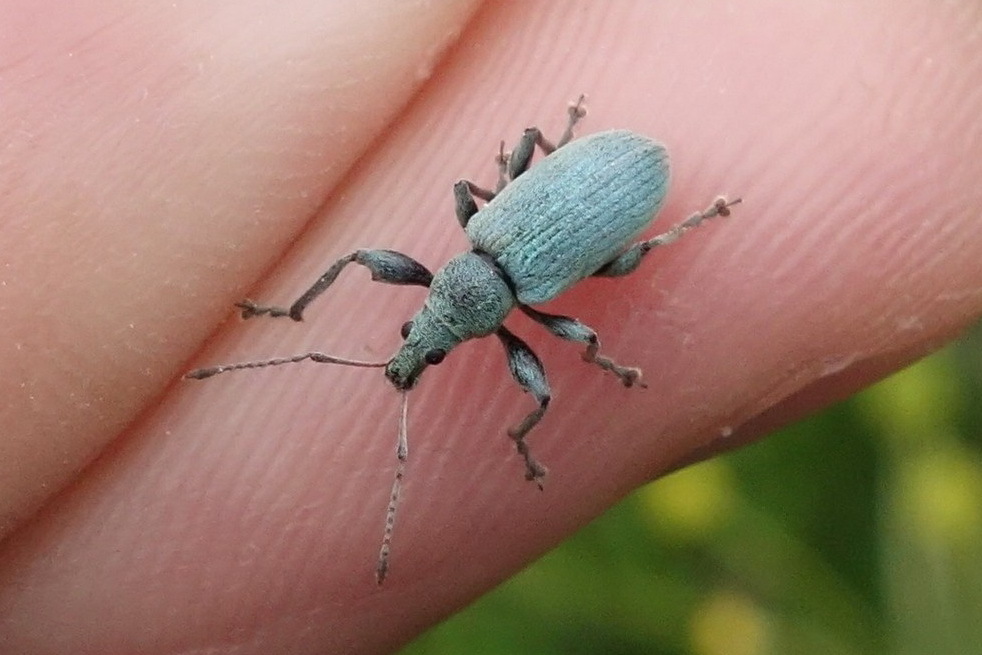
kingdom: Animalia
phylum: Arthropoda
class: Insecta
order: Coleoptera
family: Curculionidae
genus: Phyllobius
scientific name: Phyllobius pomaceus
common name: Green nettle weevil
